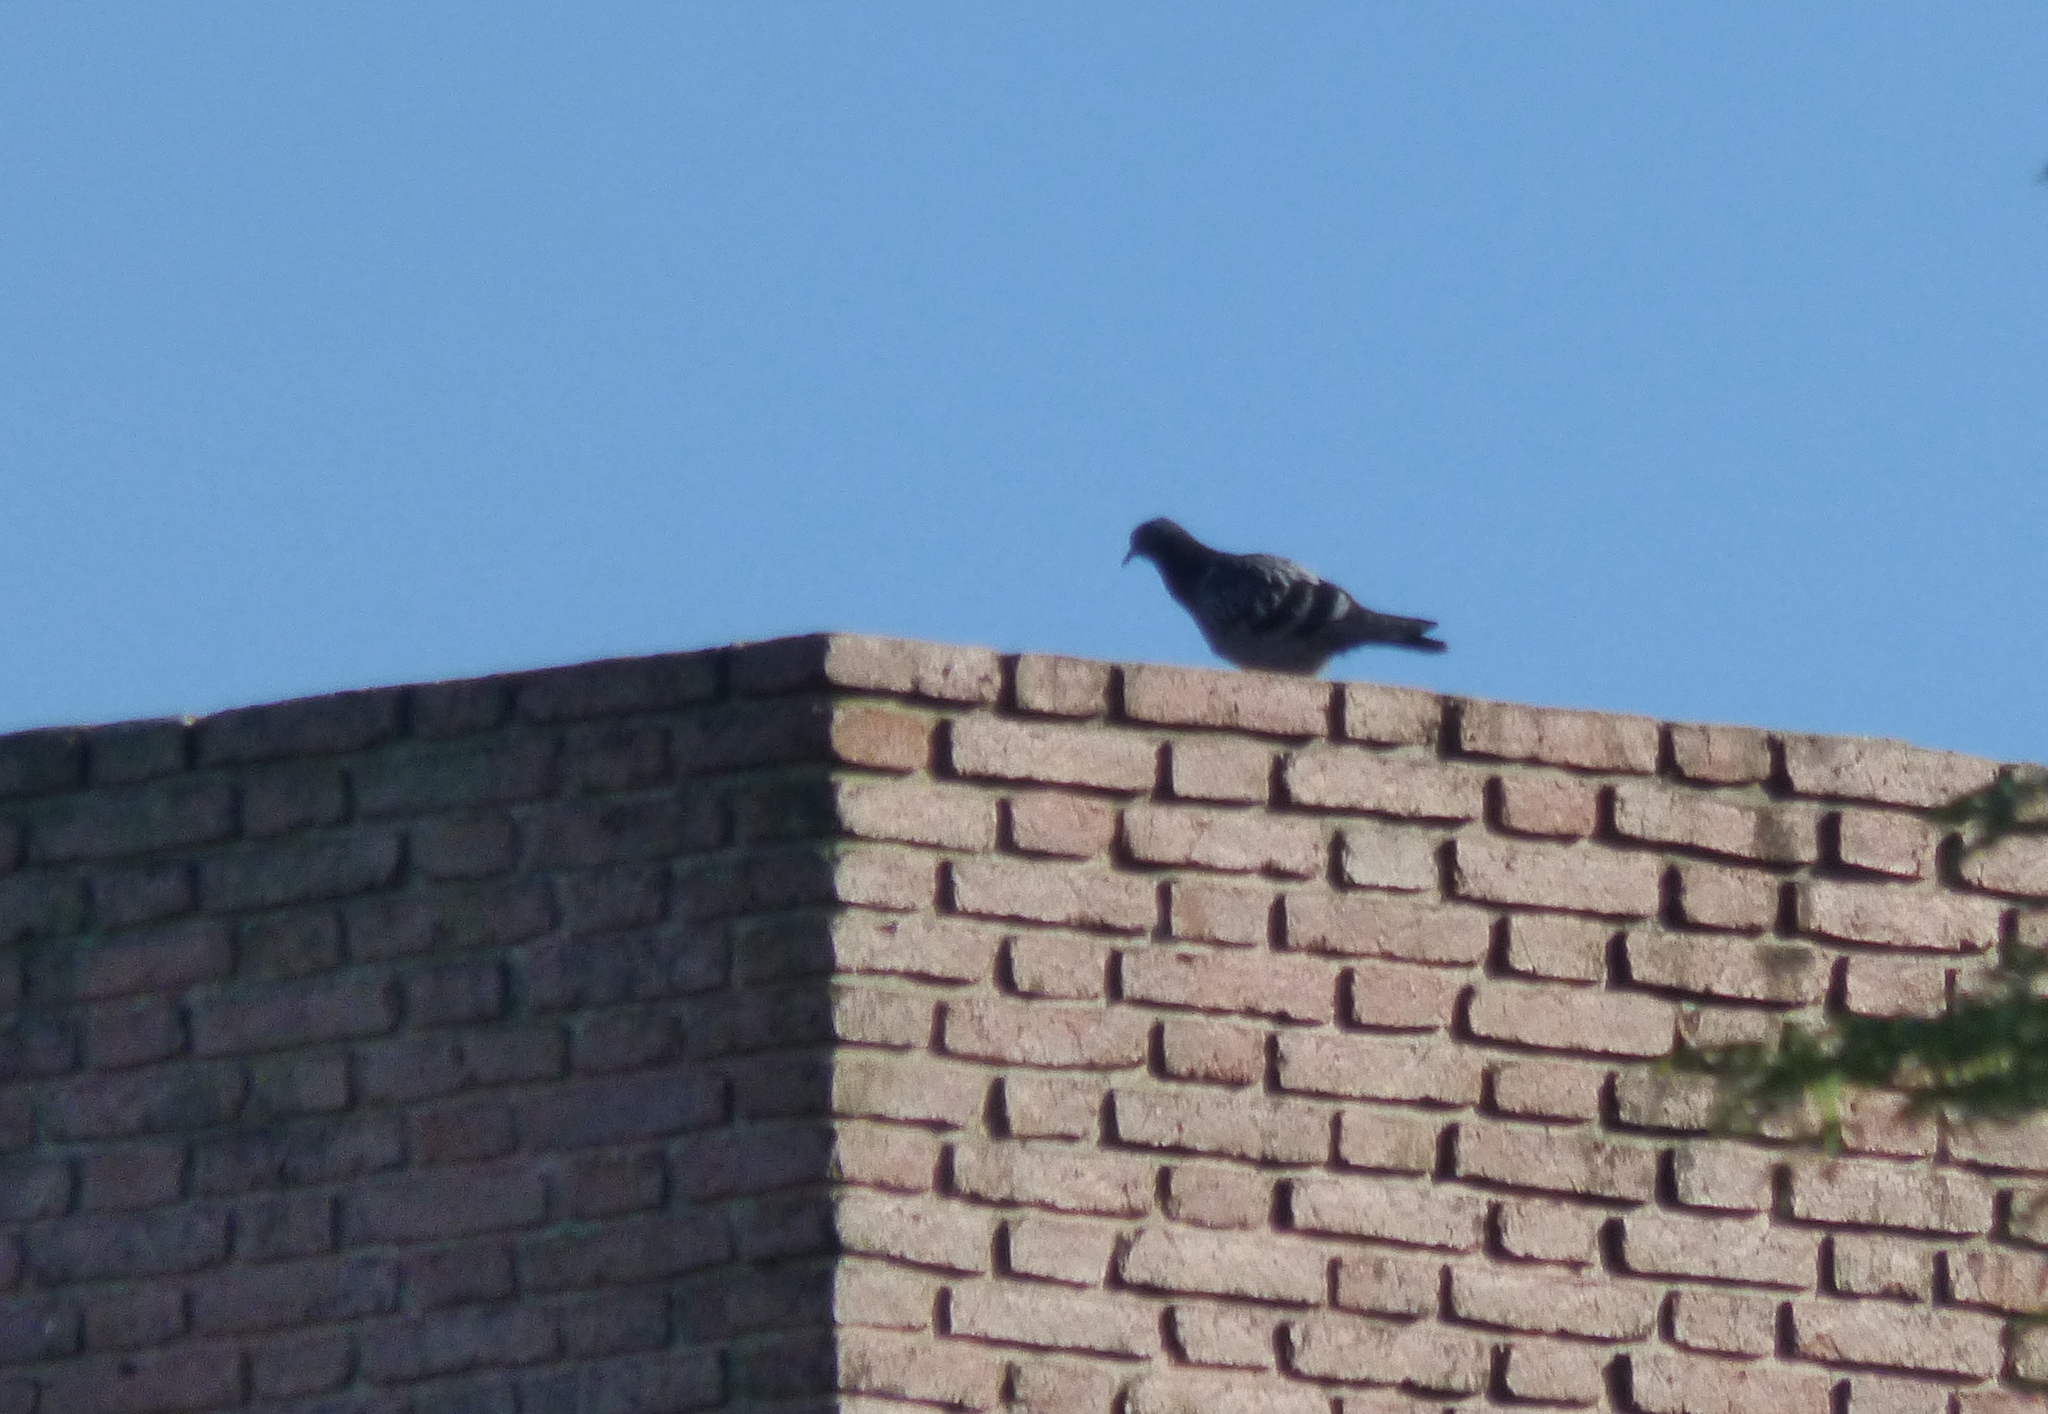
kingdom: Animalia
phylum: Chordata
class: Aves
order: Columbiformes
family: Columbidae
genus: Columba
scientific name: Columba livia
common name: Rock pigeon
